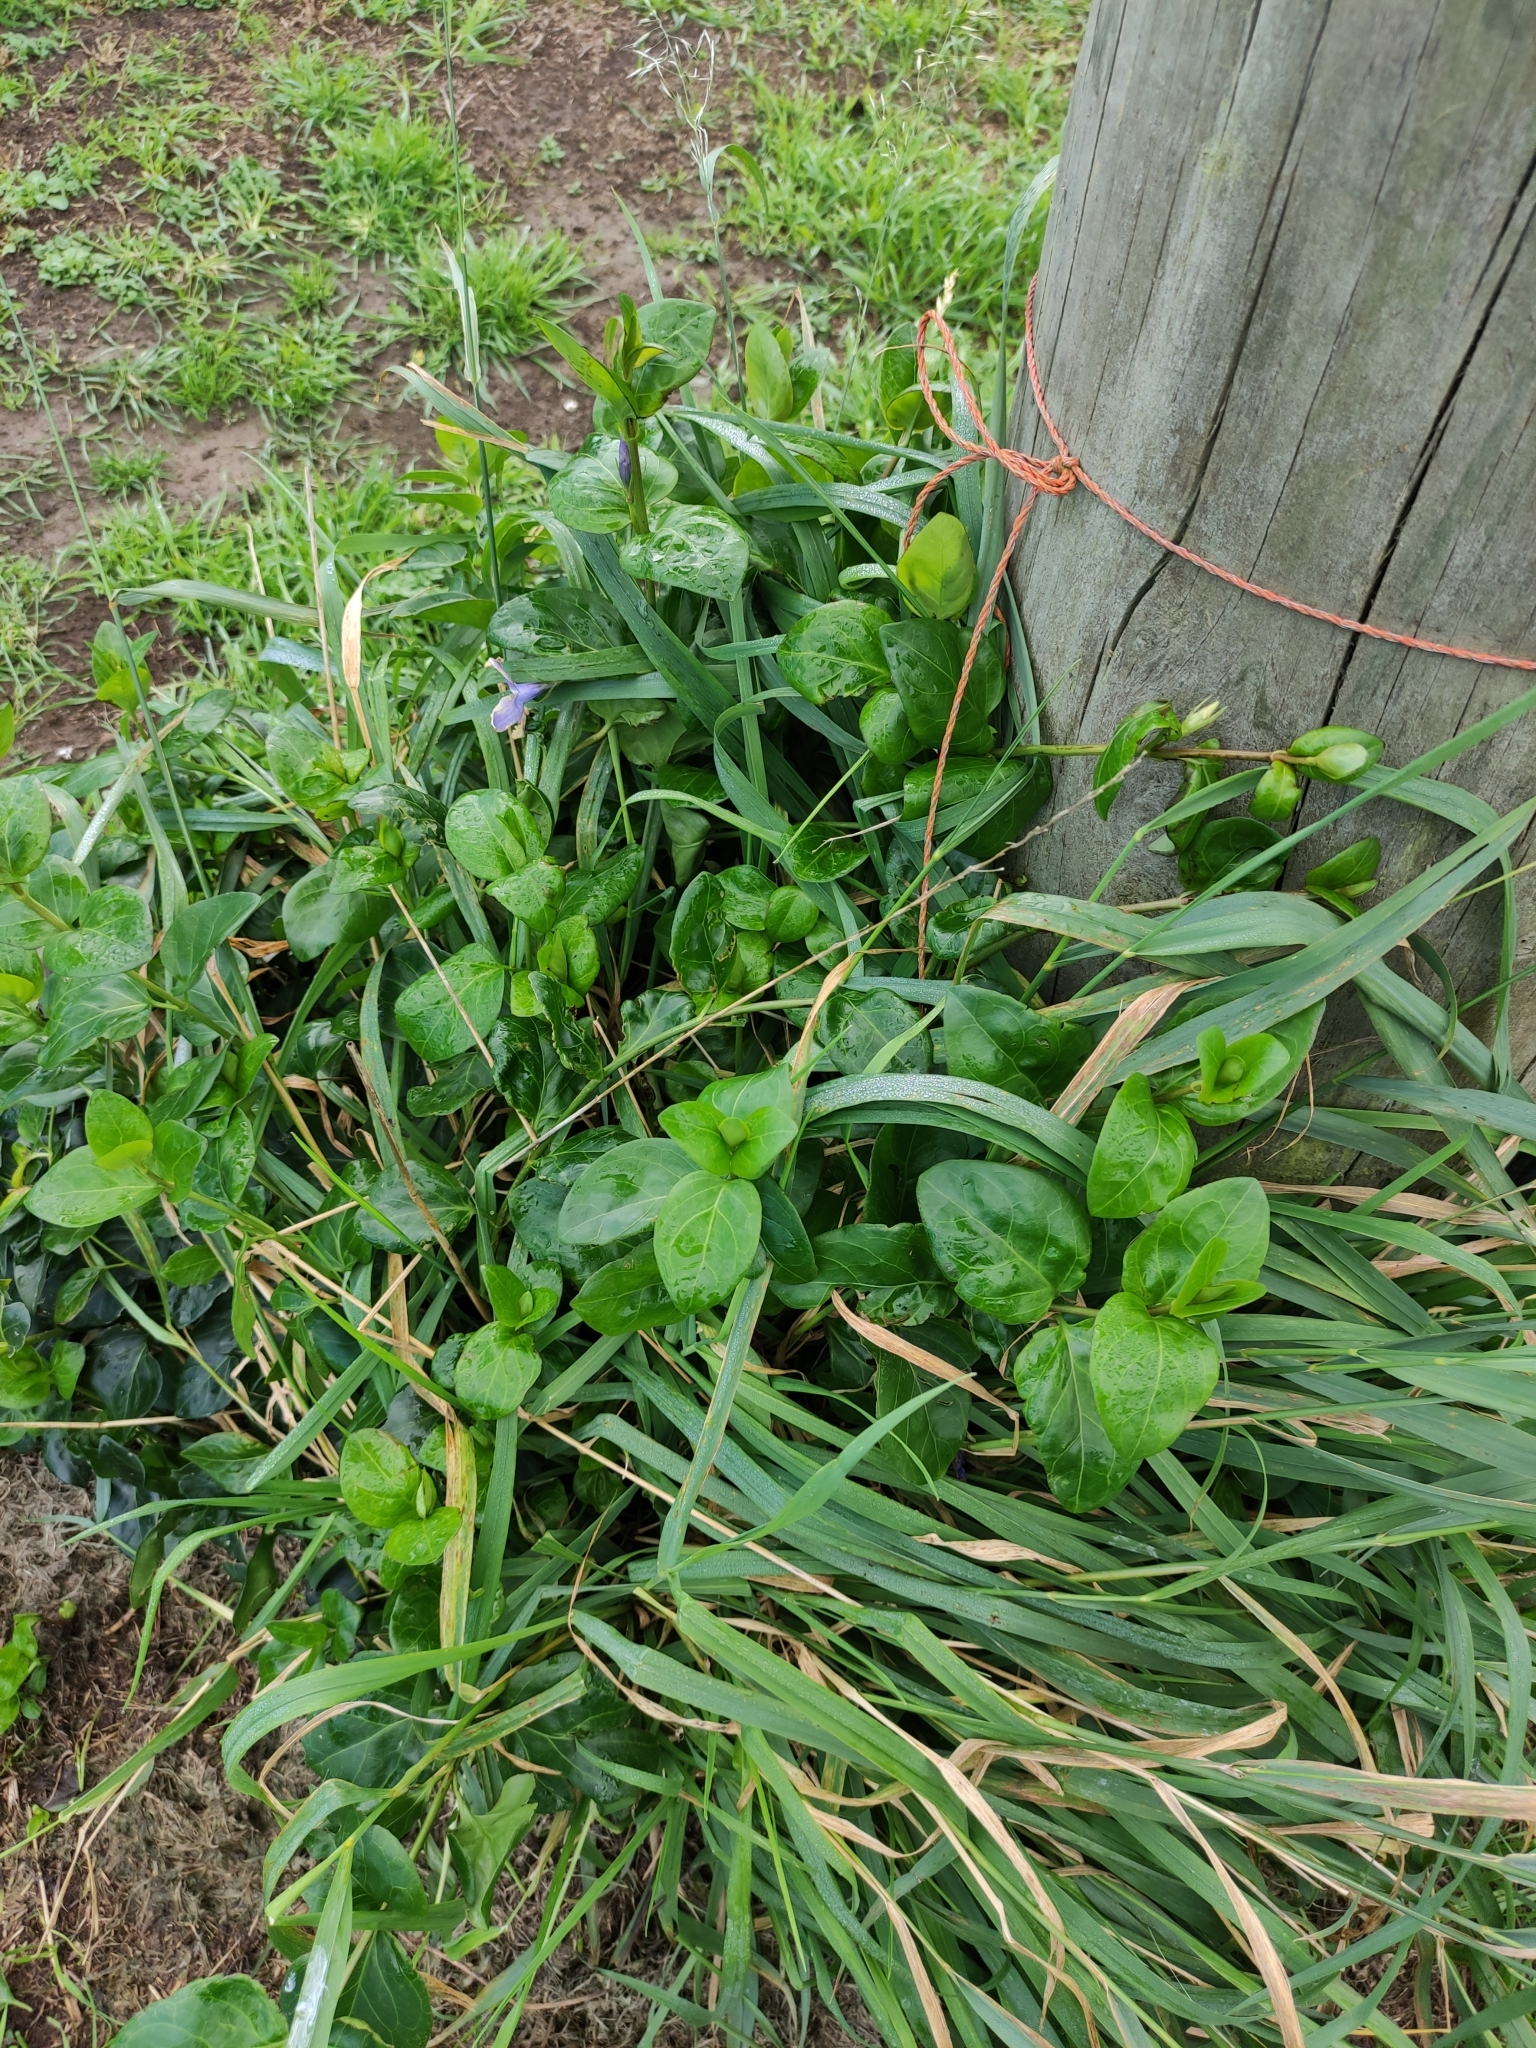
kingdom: Plantae
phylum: Tracheophyta
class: Magnoliopsida
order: Gentianales
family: Apocynaceae
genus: Vinca
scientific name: Vinca major
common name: Greater periwinkle
